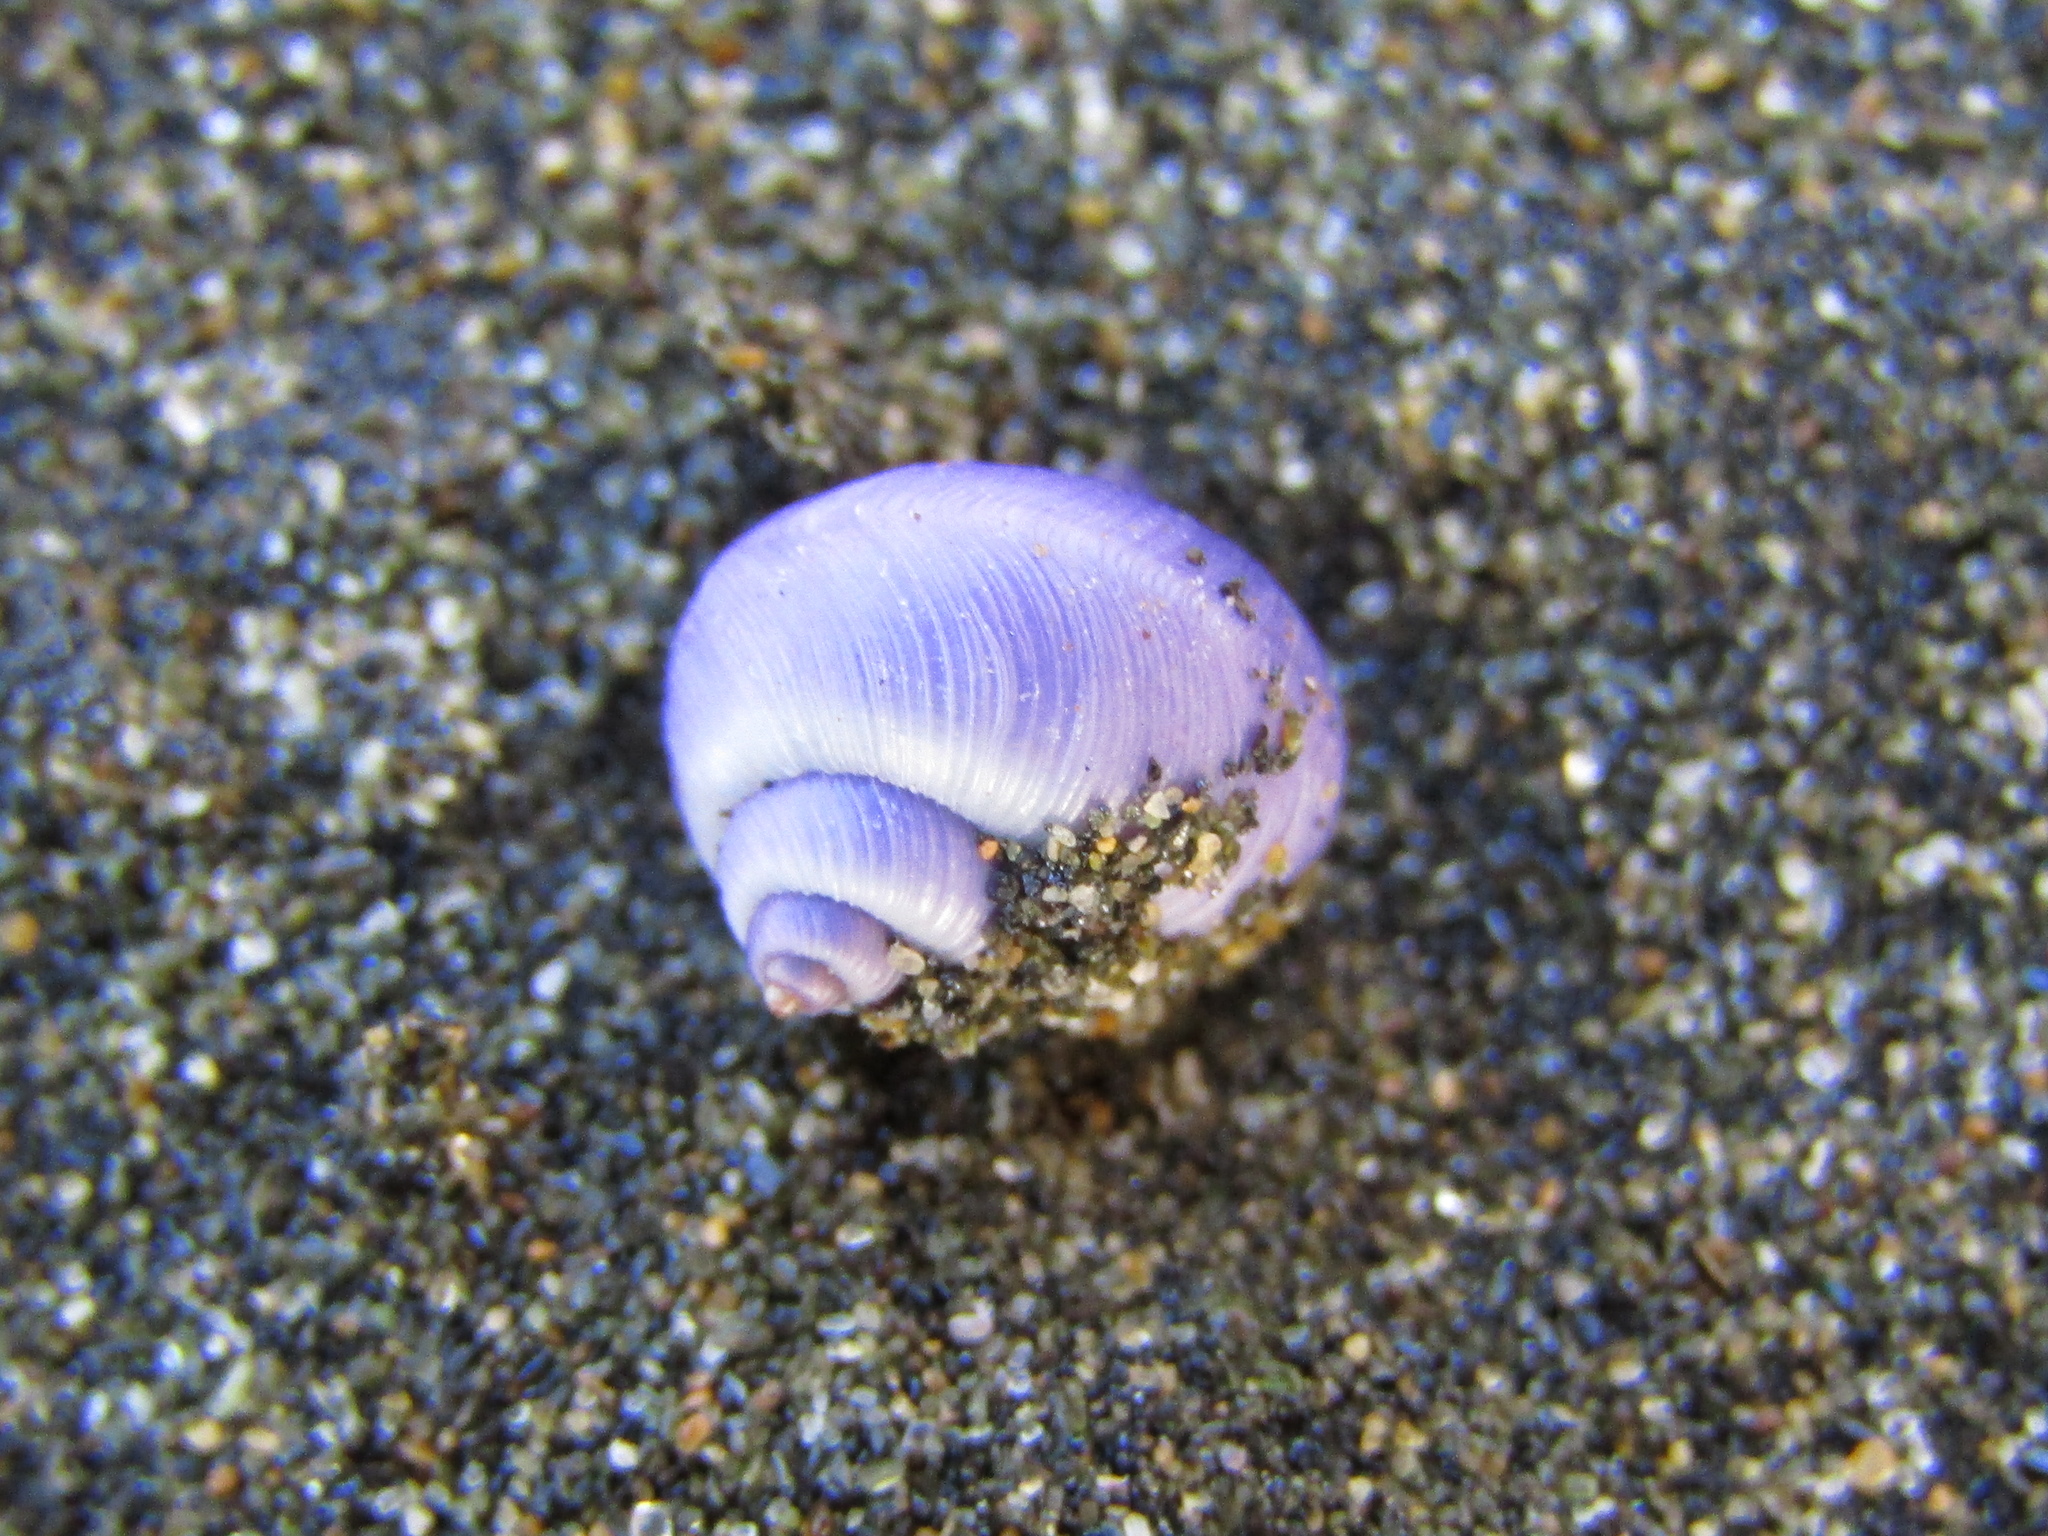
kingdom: Animalia
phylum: Mollusca
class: Gastropoda
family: Epitoniidae
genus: Janthina
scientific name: Janthina exigua
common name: Dwarf janthina
